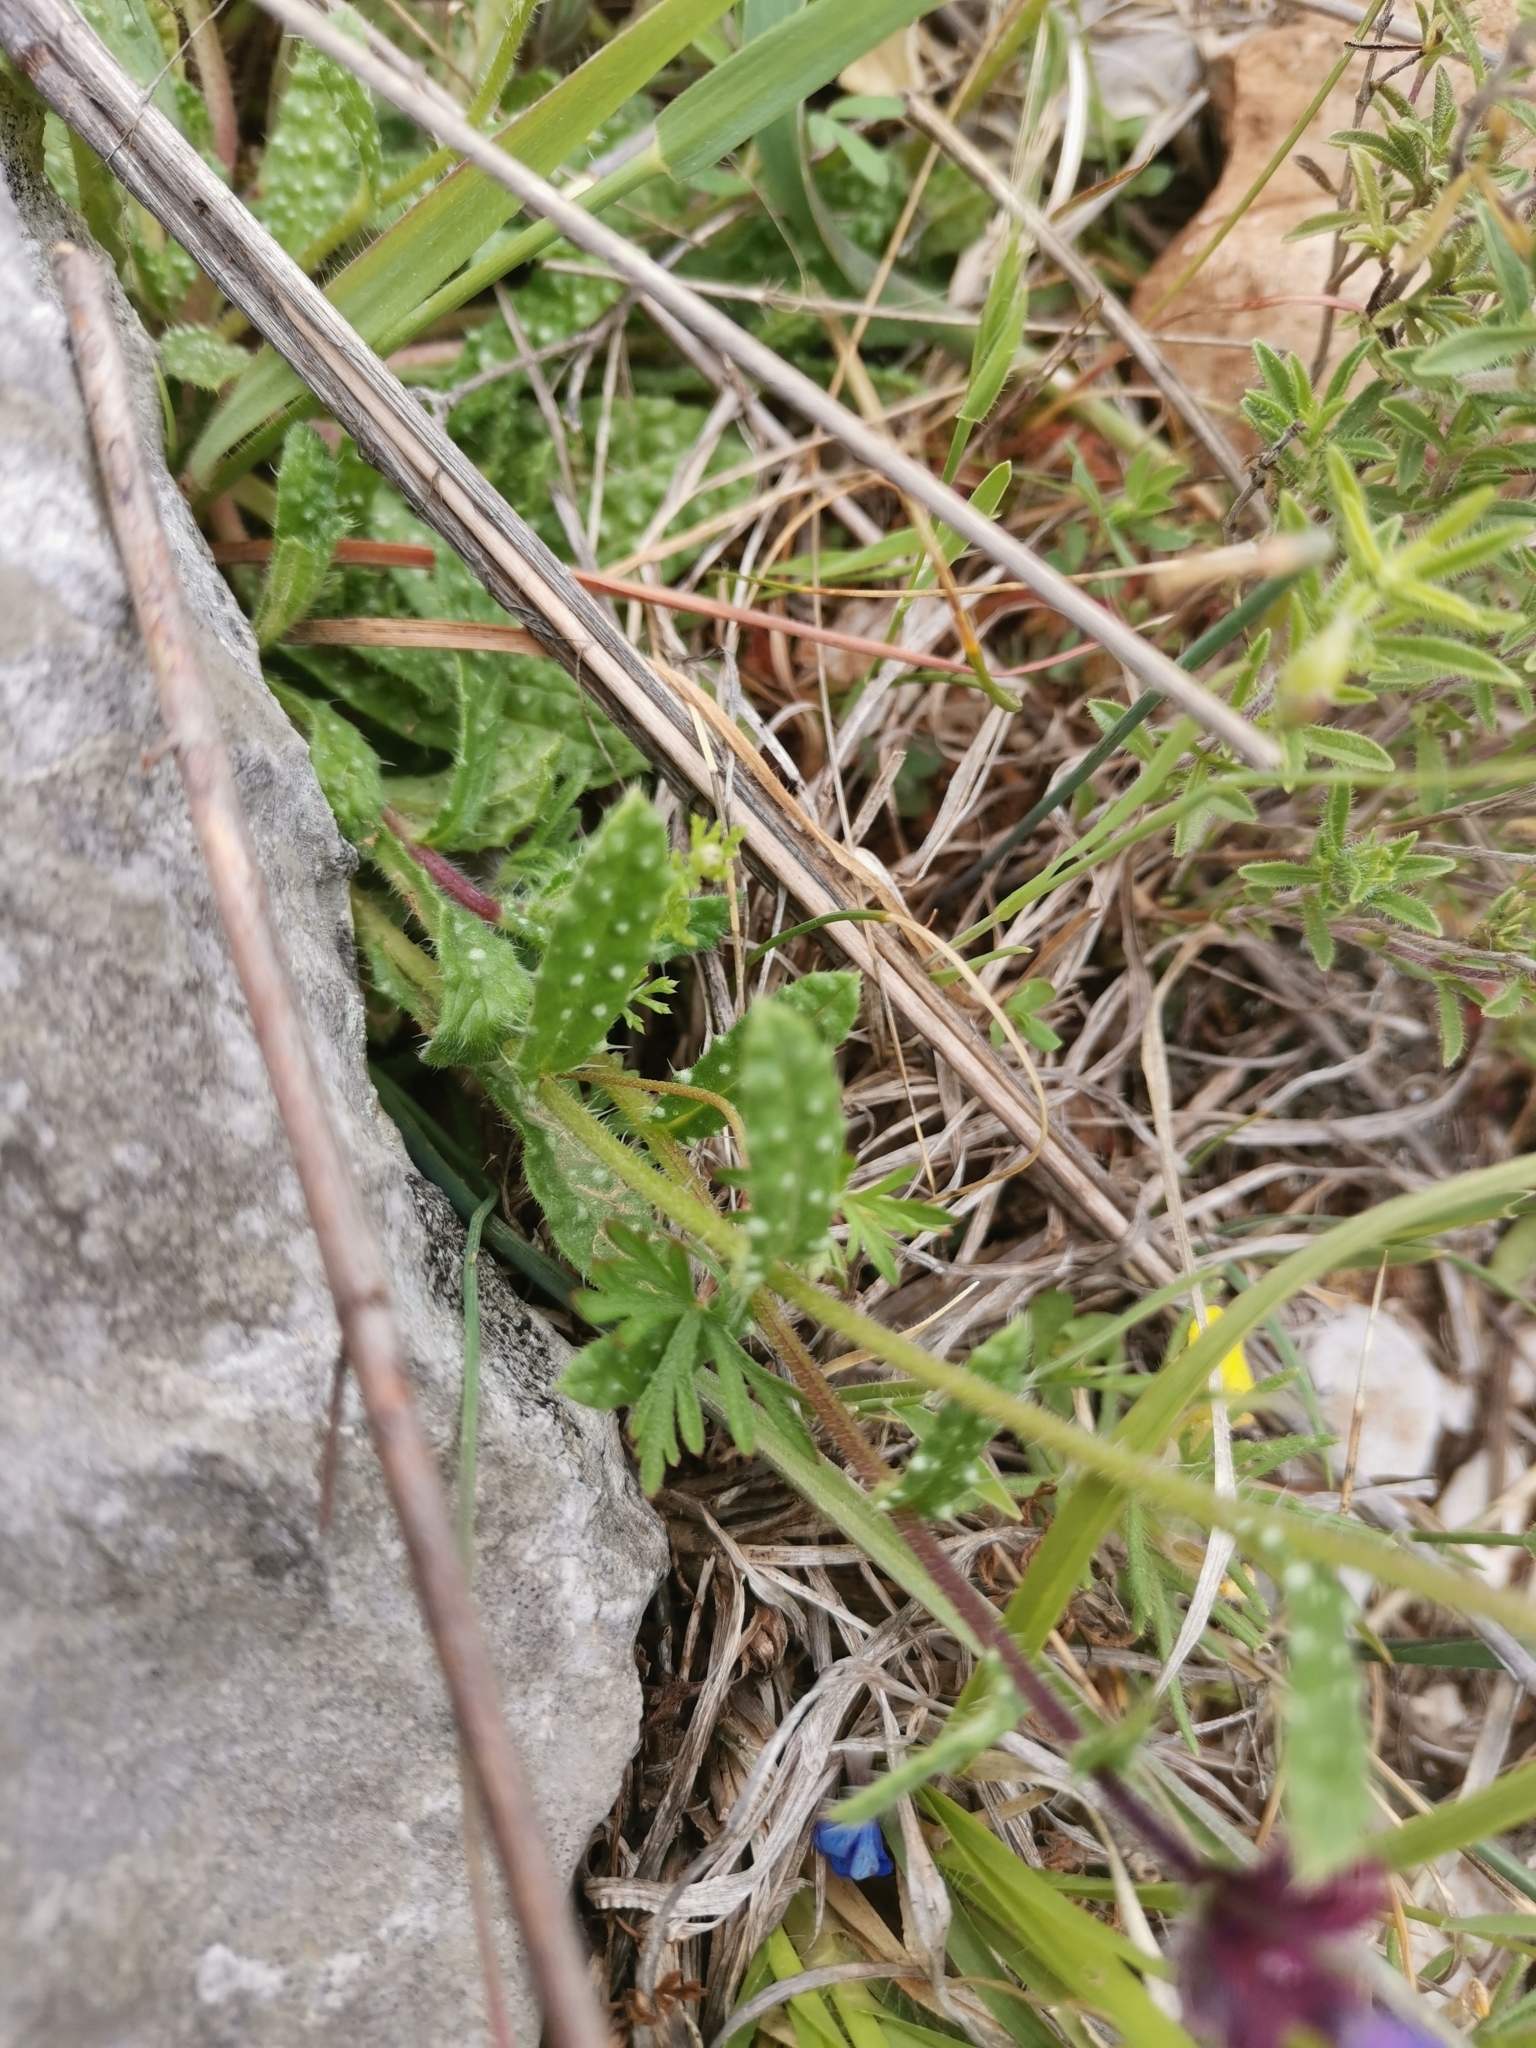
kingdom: Plantae
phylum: Tracheophyta
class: Magnoliopsida
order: Boraginales
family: Boraginaceae
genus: Anchusella
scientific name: Anchusella cretica
